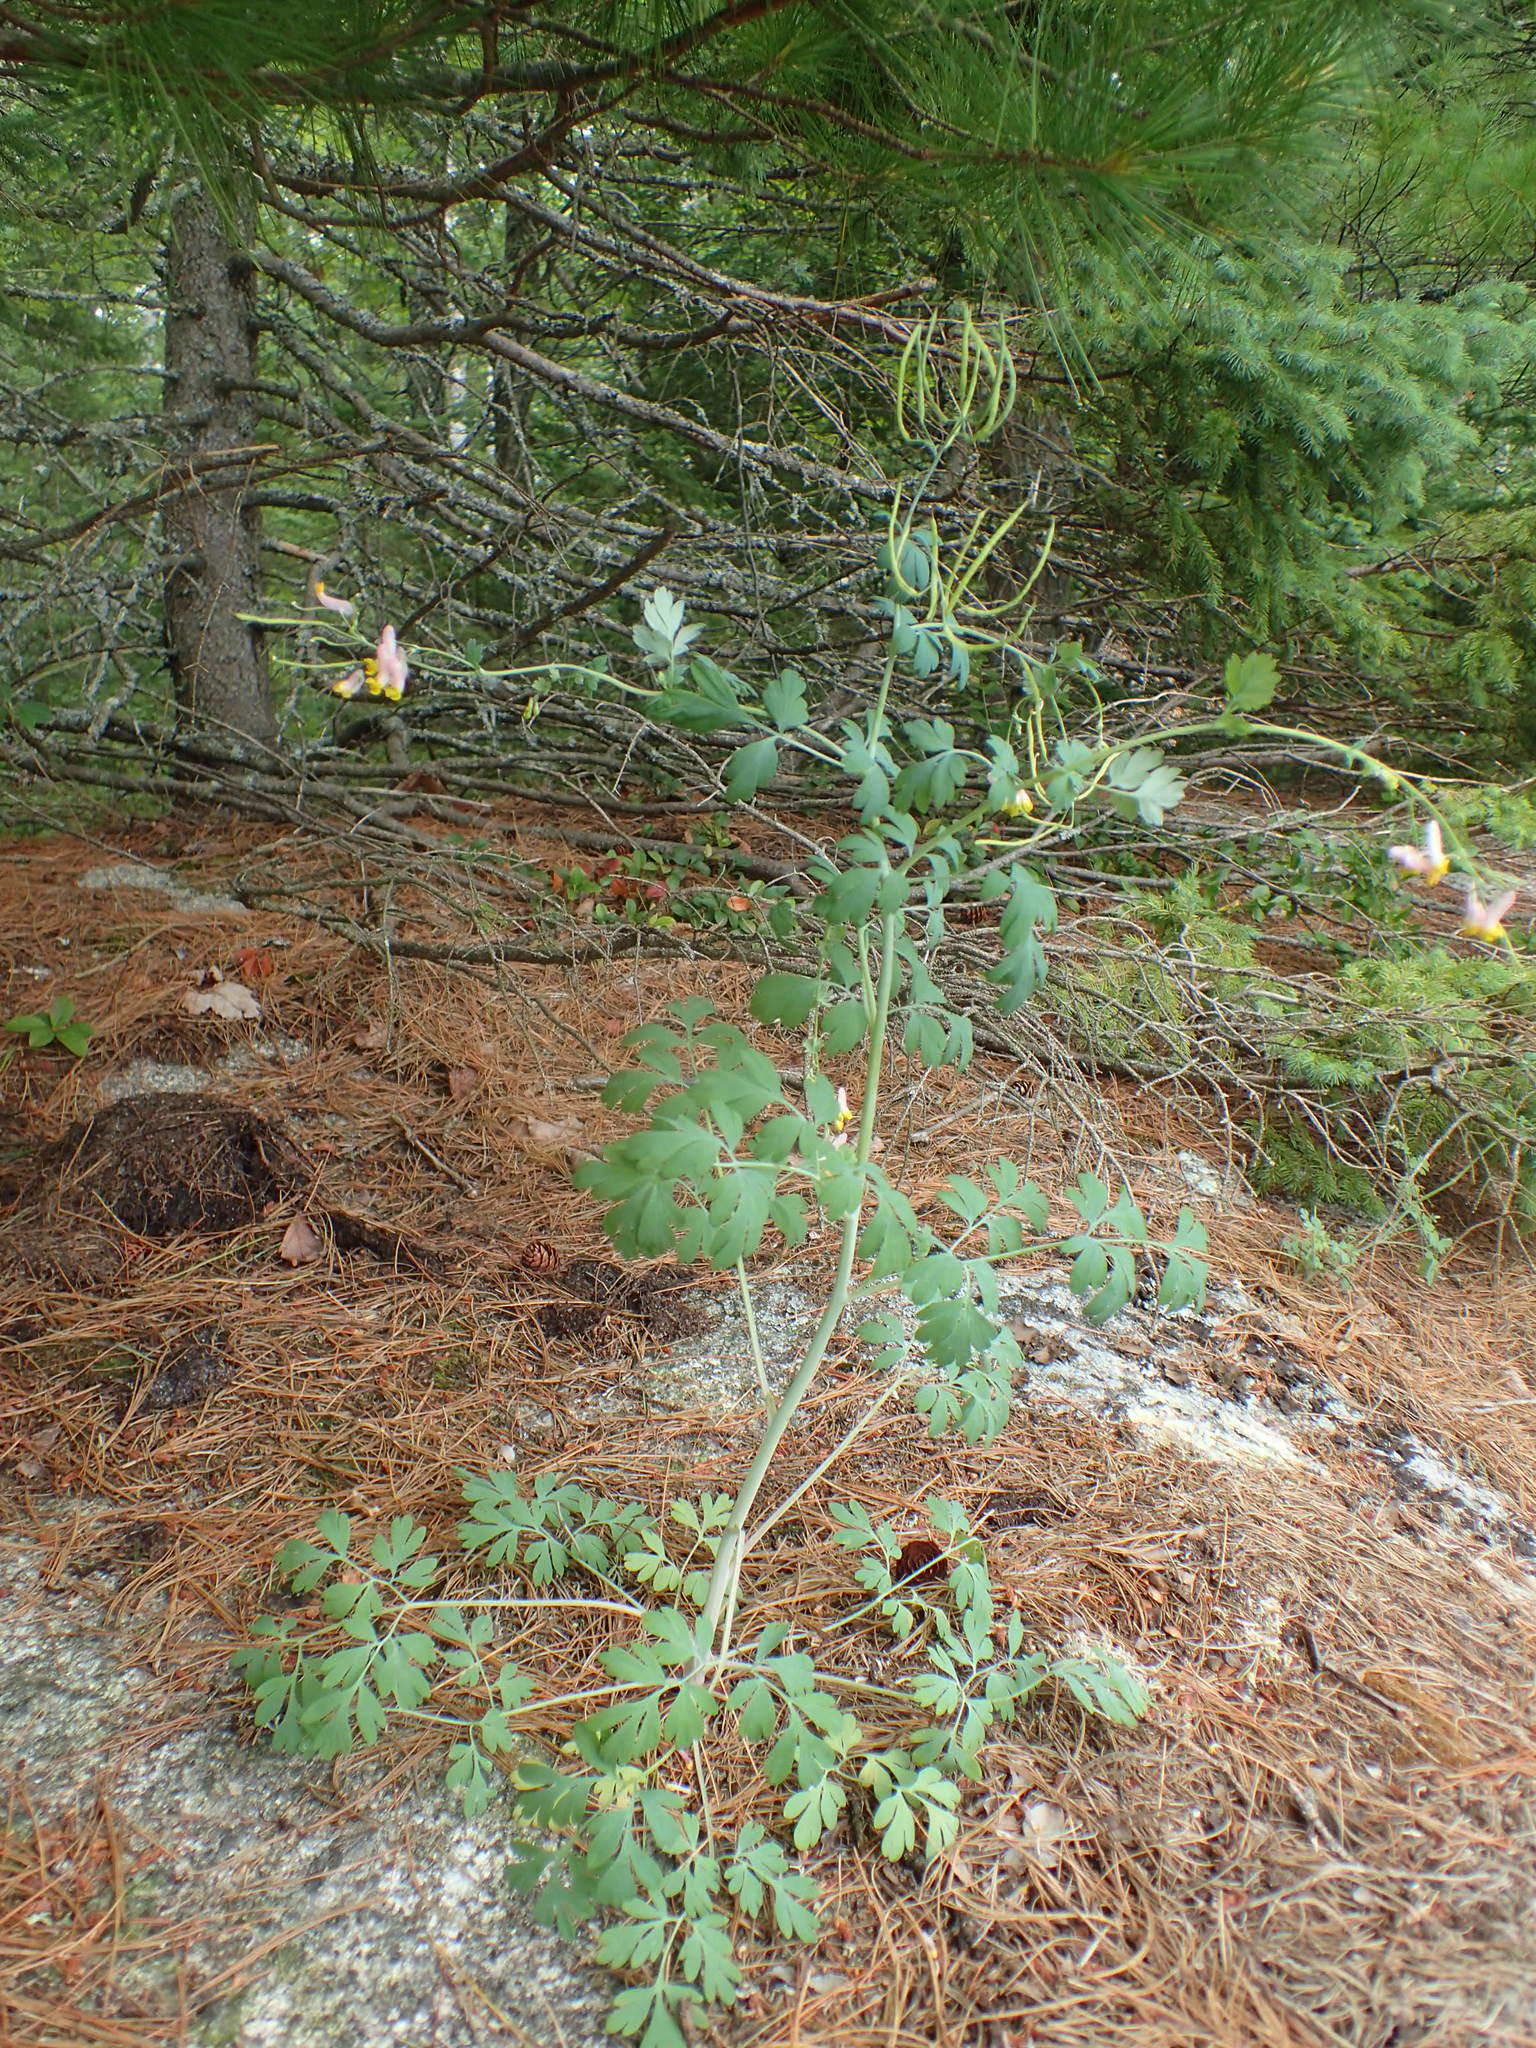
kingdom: Plantae
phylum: Tracheophyta
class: Magnoliopsida
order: Ranunculales
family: Papaveraceae
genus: Capnoides
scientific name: Capnoides sempervirens
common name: Rock harlequin
